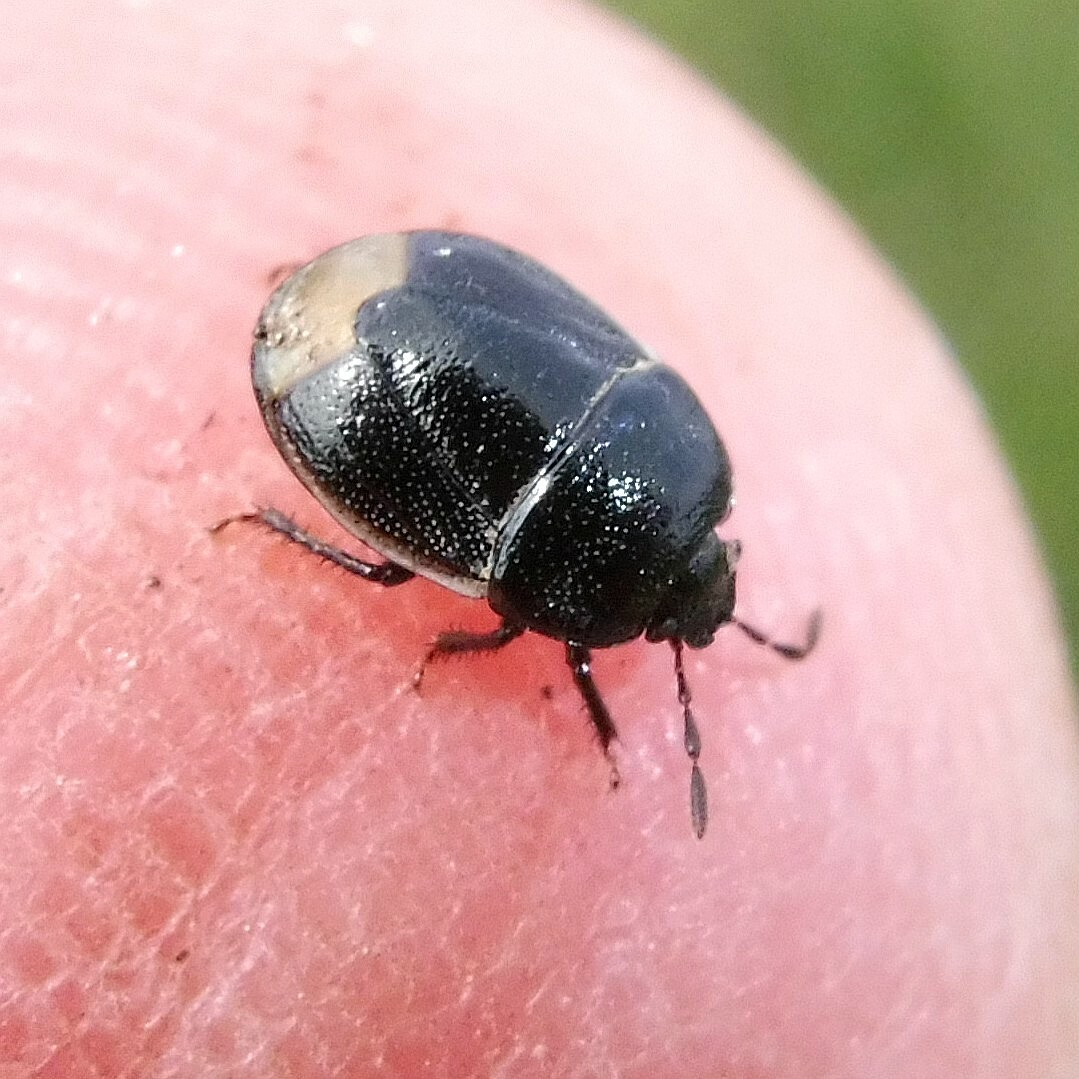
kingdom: Animalia
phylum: Arthropoda
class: Insecta
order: Hemiptera
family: Cydnidae
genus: Legnotus
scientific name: Legnotus limbosus
